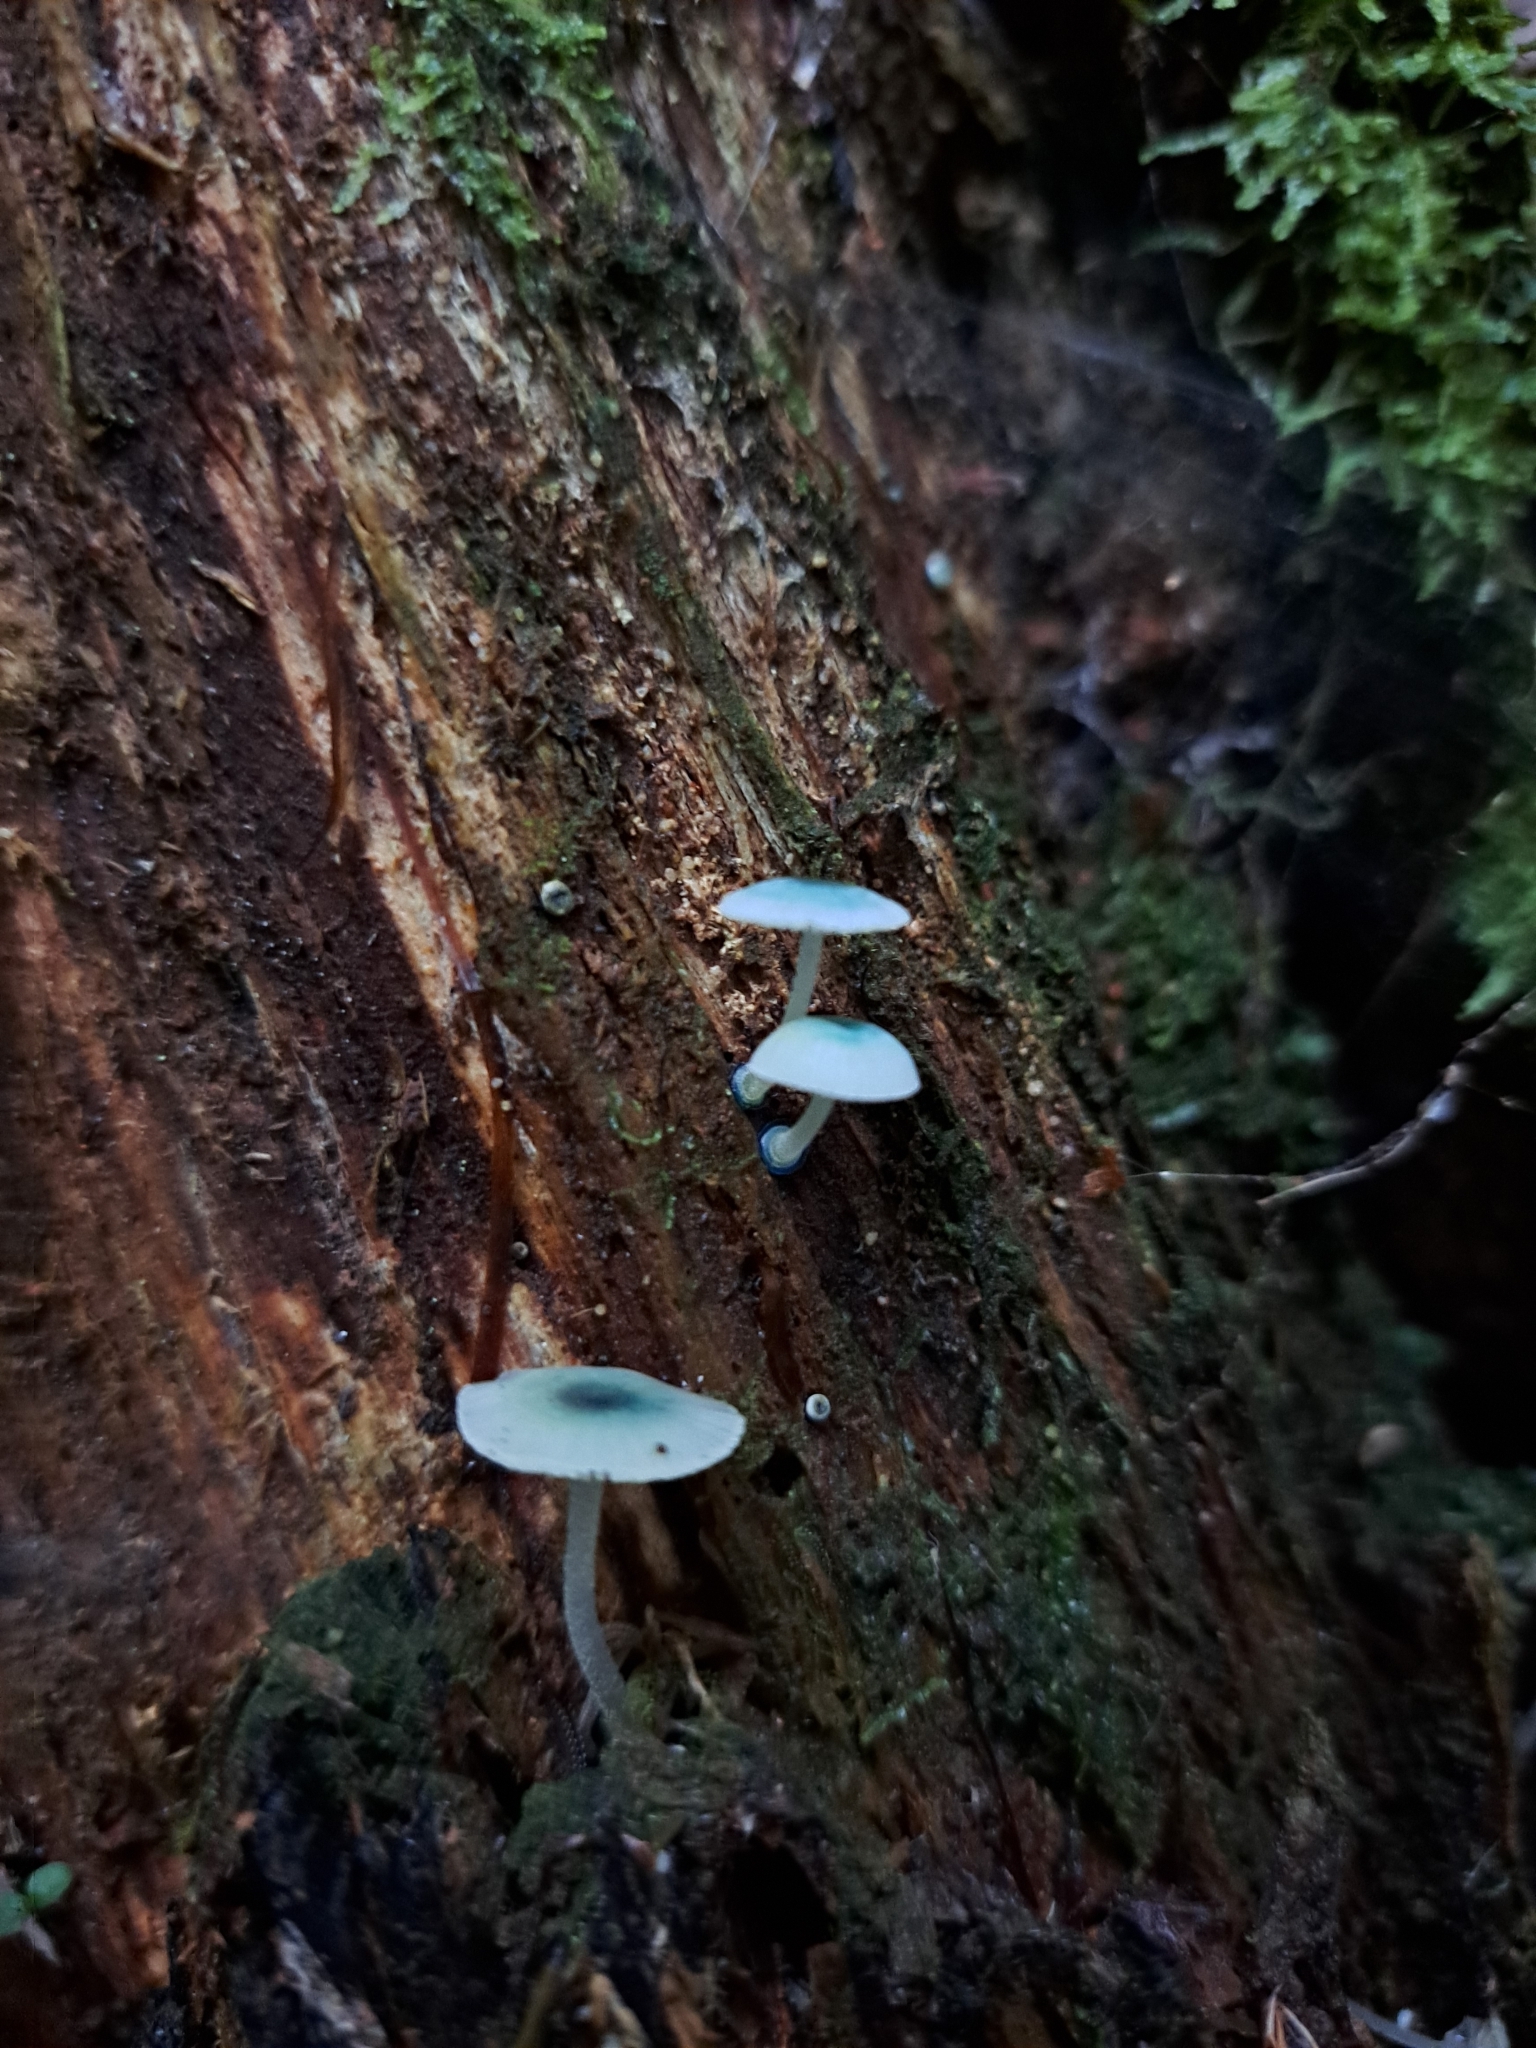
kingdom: Fungi
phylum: Basidiomycota
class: Agaricomycetes
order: Agaricales
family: Mycenaceae
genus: Mycena
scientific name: Mycena interrupta
